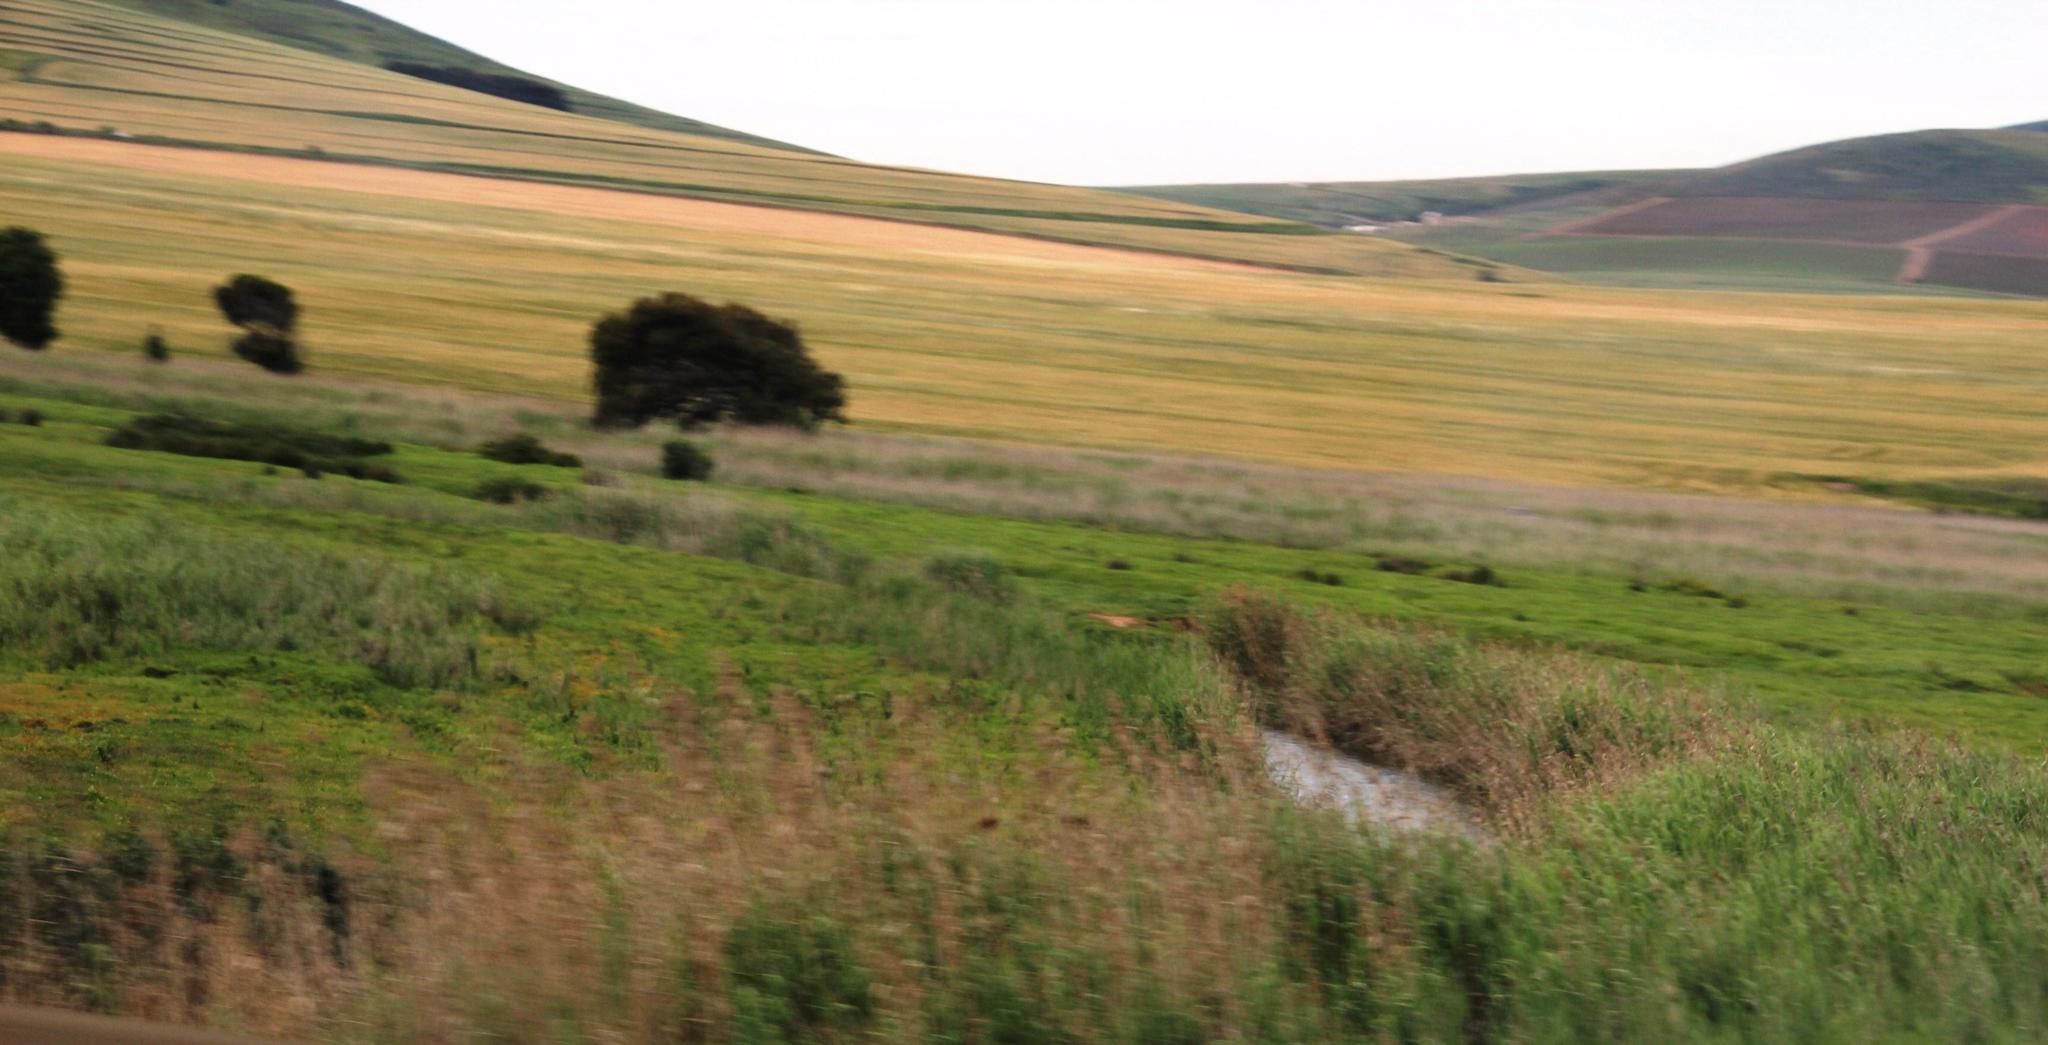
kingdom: Plantae
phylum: Tracheophyta
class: Liliopsida
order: Poales
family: Poaceae
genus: Phragmites
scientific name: Phragmites australis
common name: Common reed
